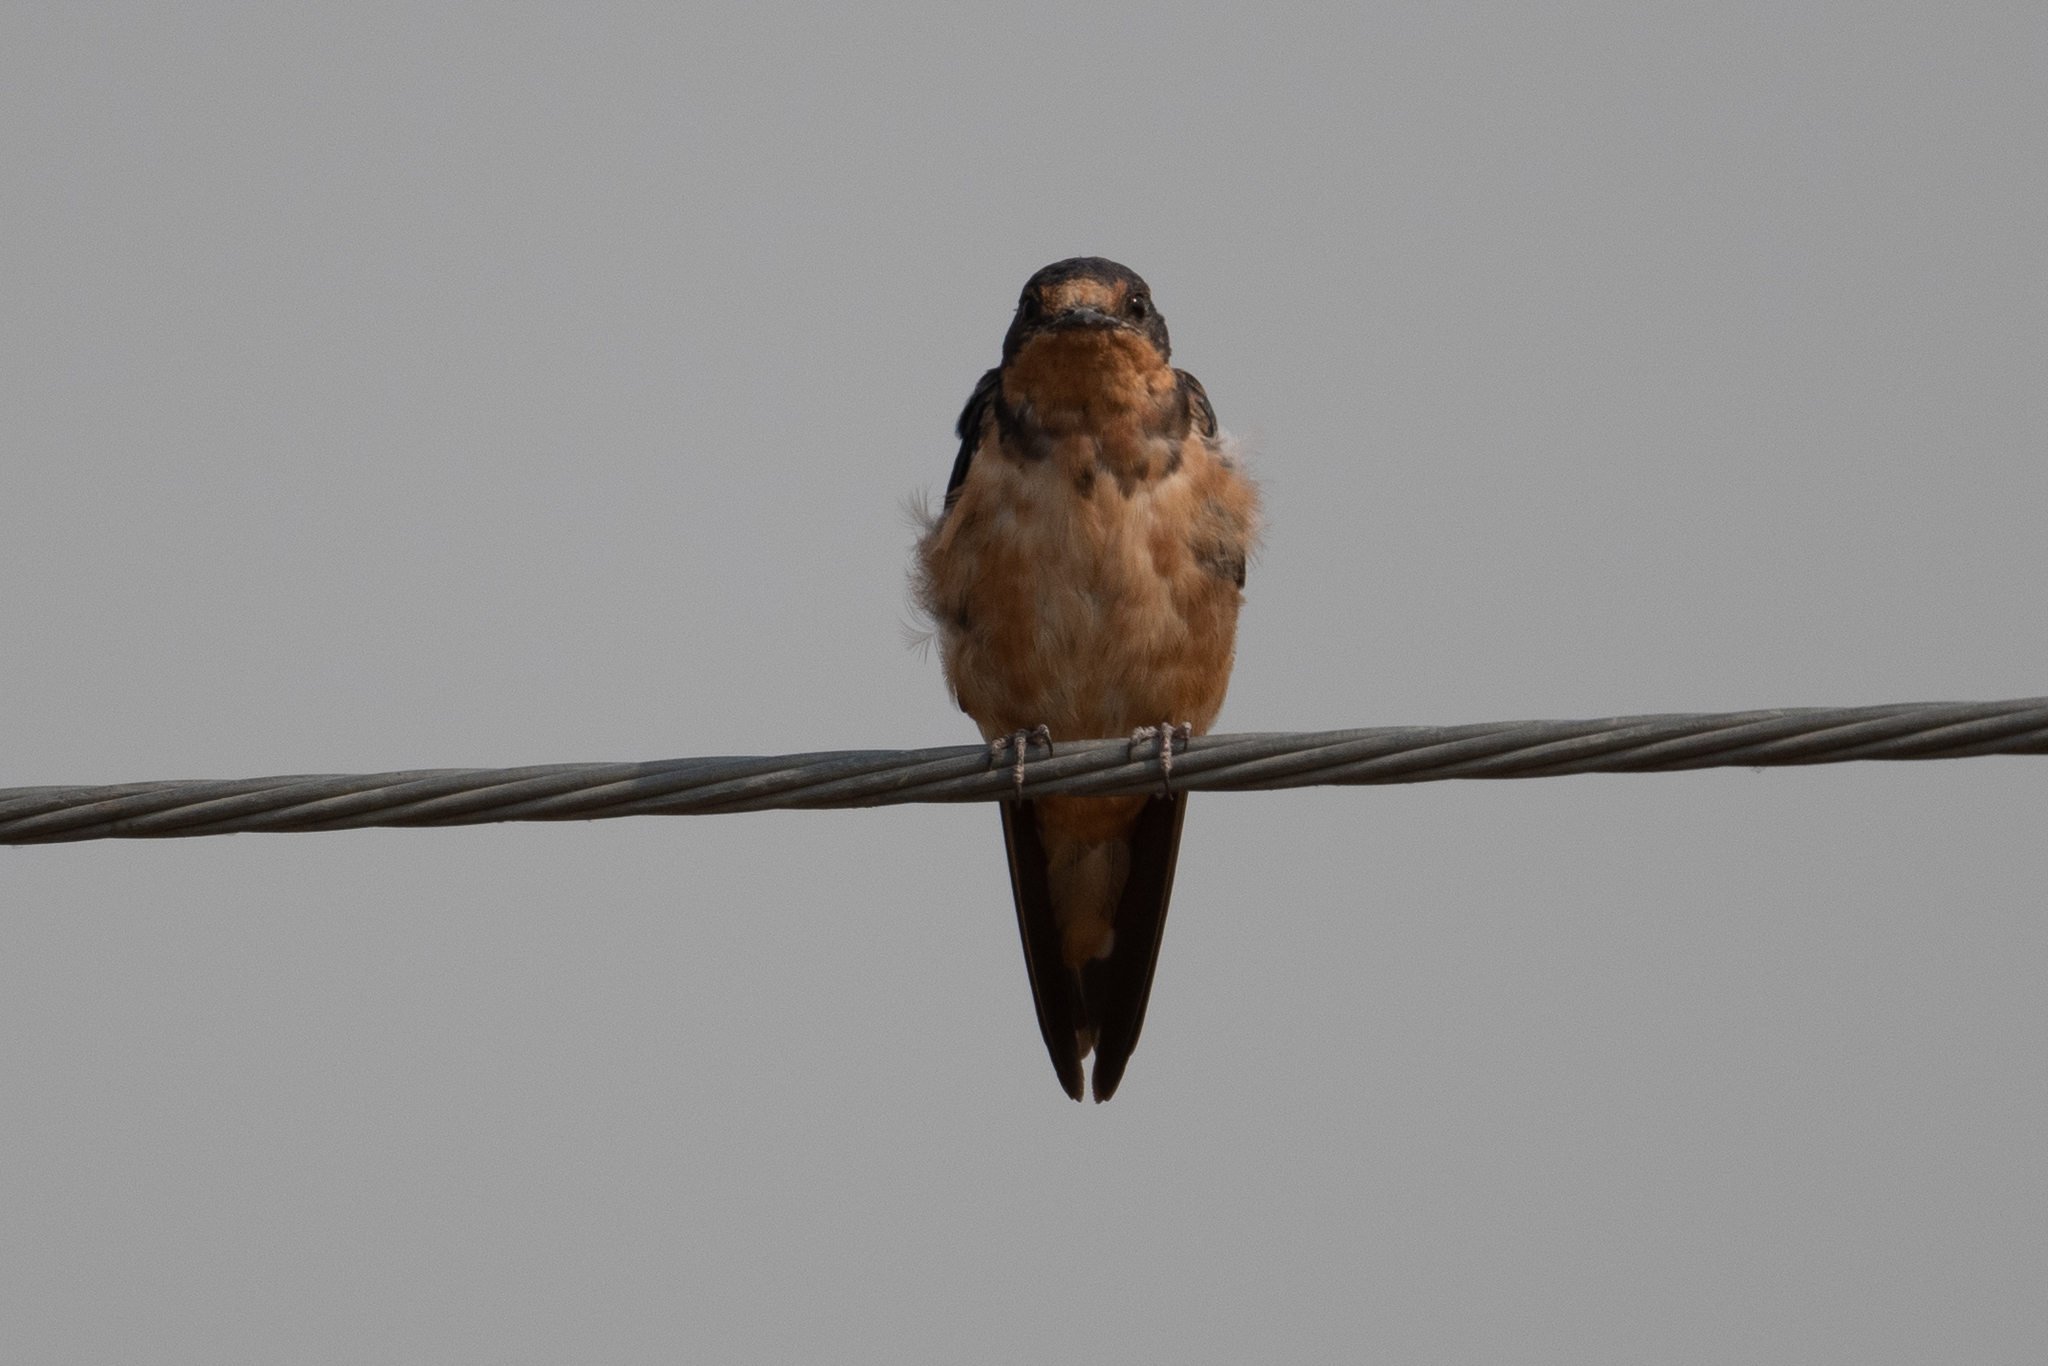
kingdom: Animalia
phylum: Chordata
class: Aves
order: Passeriformes
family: Hirundinidae
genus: Hirundo
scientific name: Hirundo rustica
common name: Barn swallow
